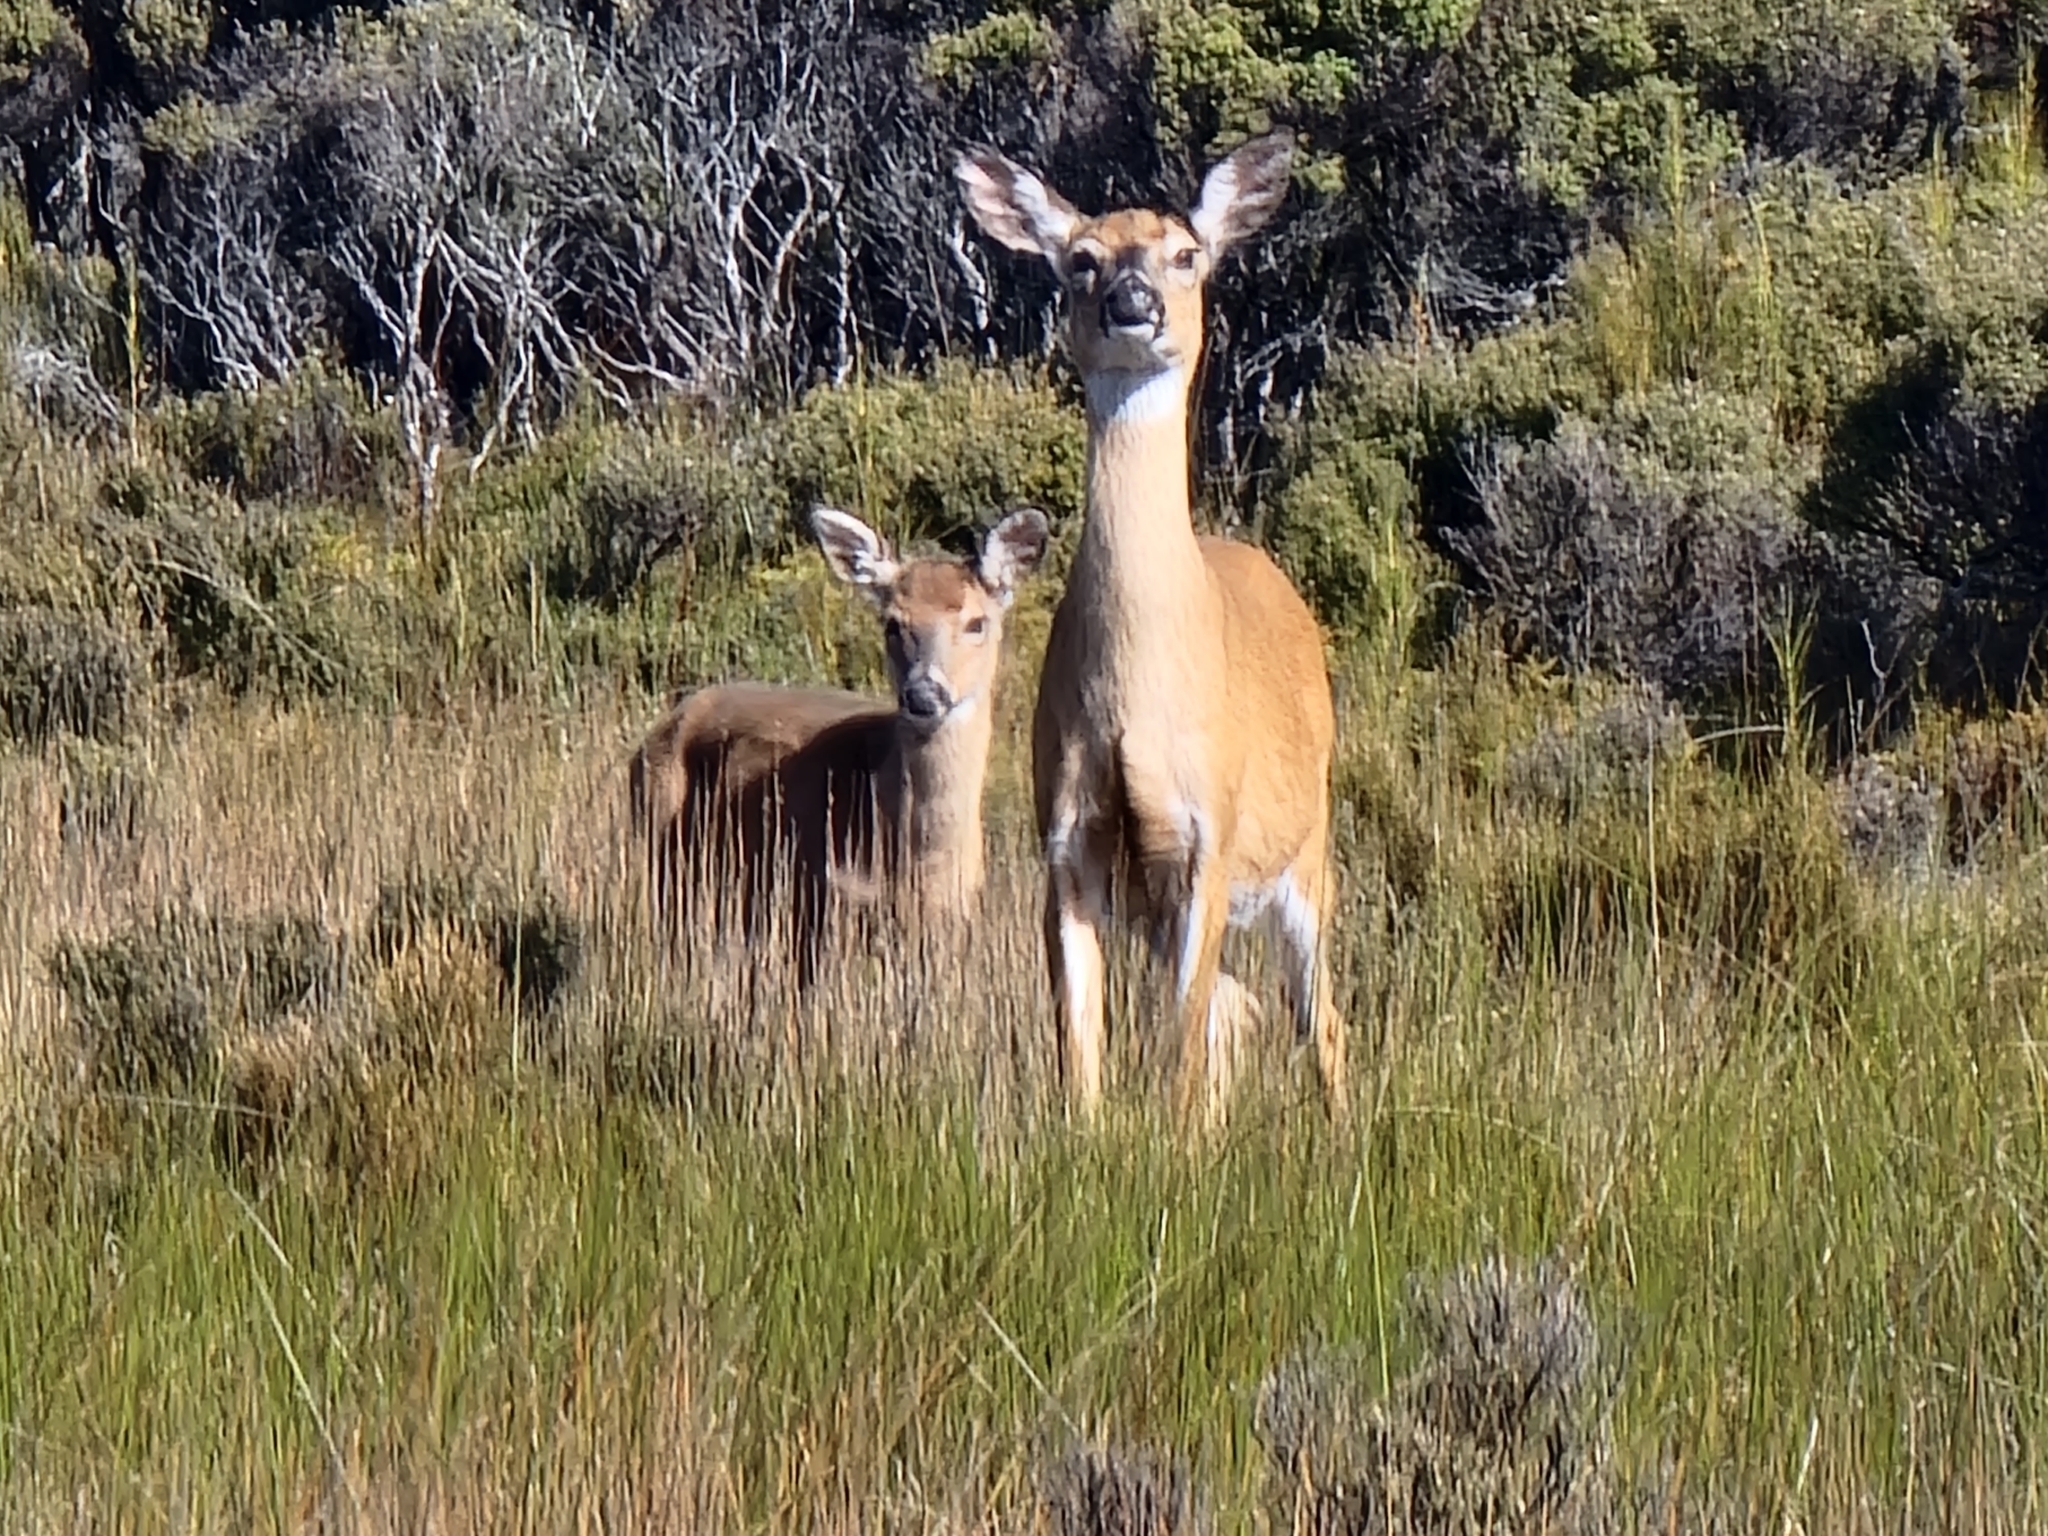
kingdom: Animalia
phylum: Chordata
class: Mammalia
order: Artiodactyla
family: Cervidae
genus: Odocoileus
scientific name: Odocoileus virginianus
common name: White-tailed deer
